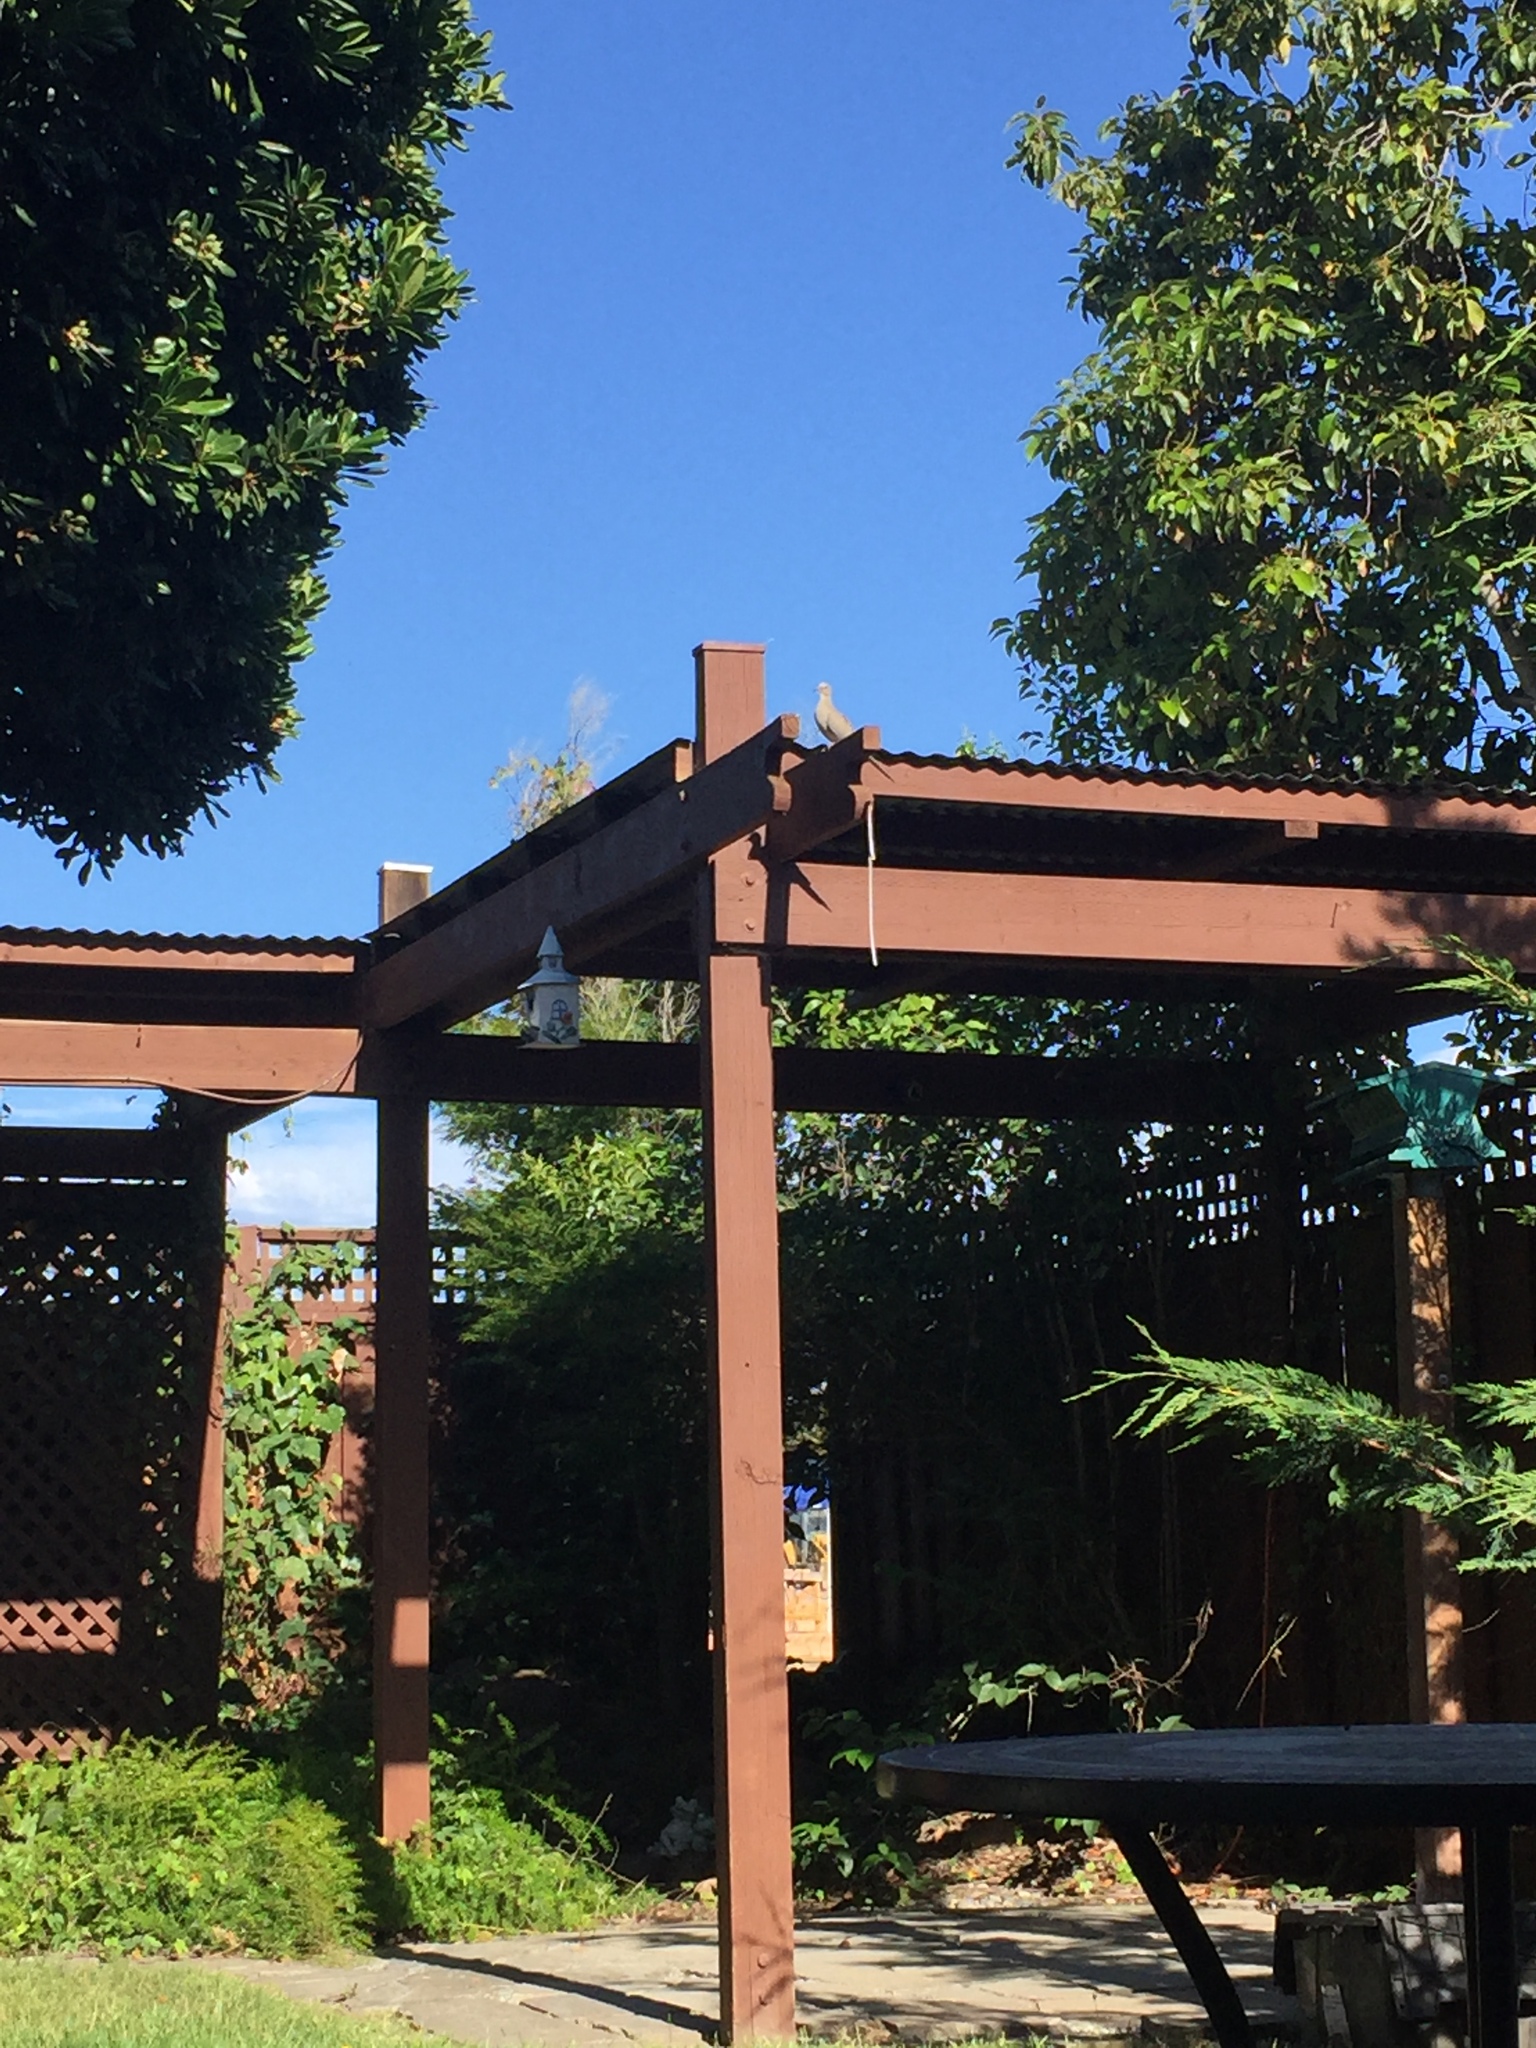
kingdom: Animalia
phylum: Chordata
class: Aves
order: Columbiformes
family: Columbidae
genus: Zenaida
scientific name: Zenaida macroura
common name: Mourning dove
